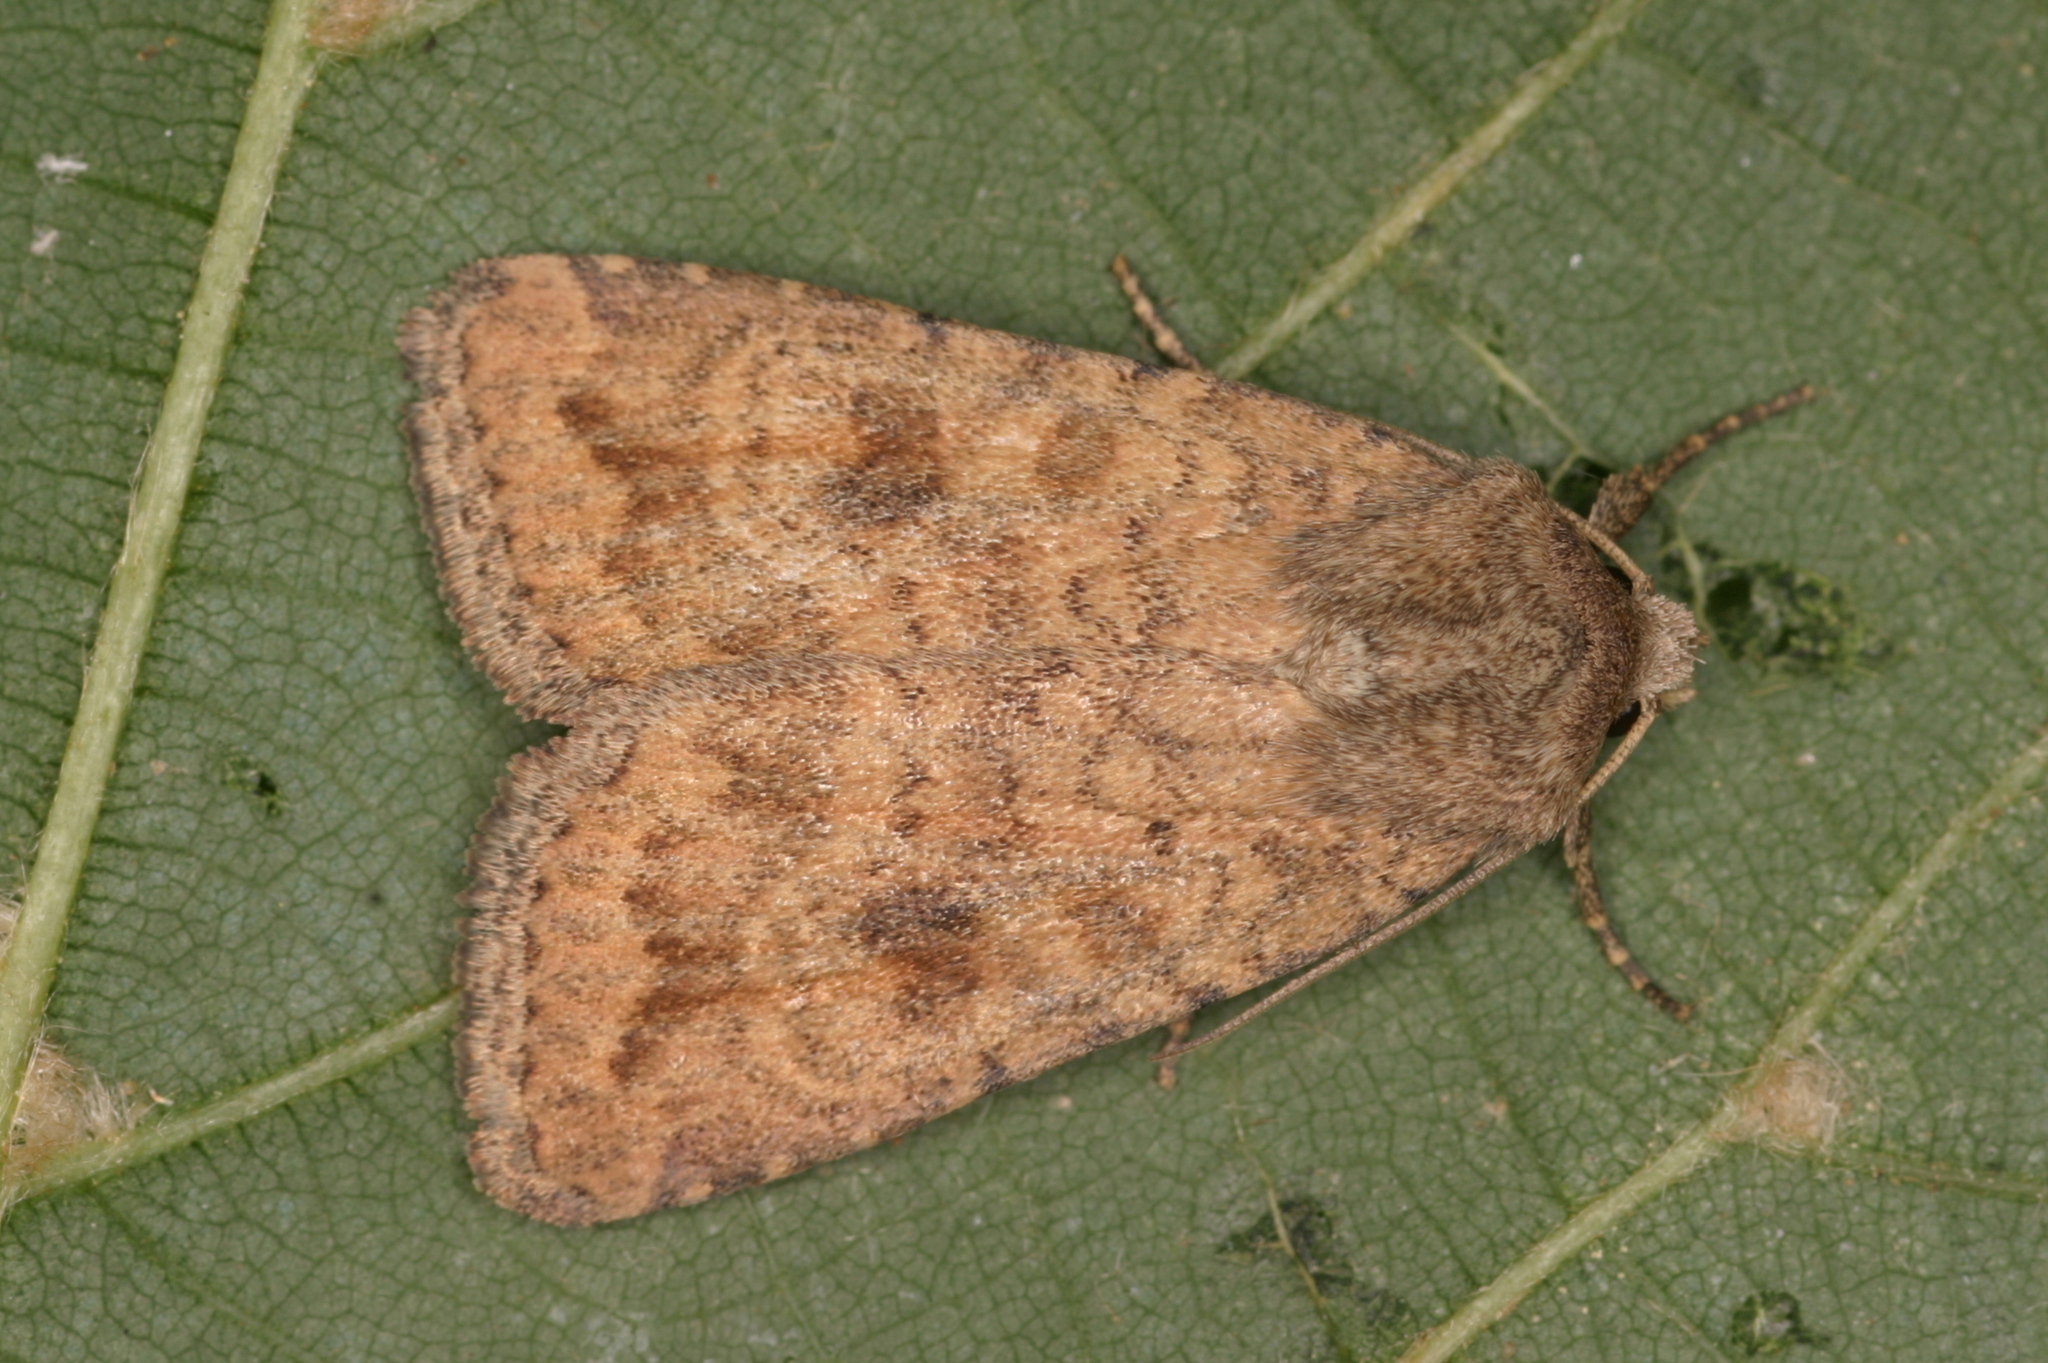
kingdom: Animalia
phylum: Arthropoda
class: Insecta
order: Lepidoptera
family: Noctuidae
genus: Caradrina
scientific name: Caradrina morpheus
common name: Mottled rustic
